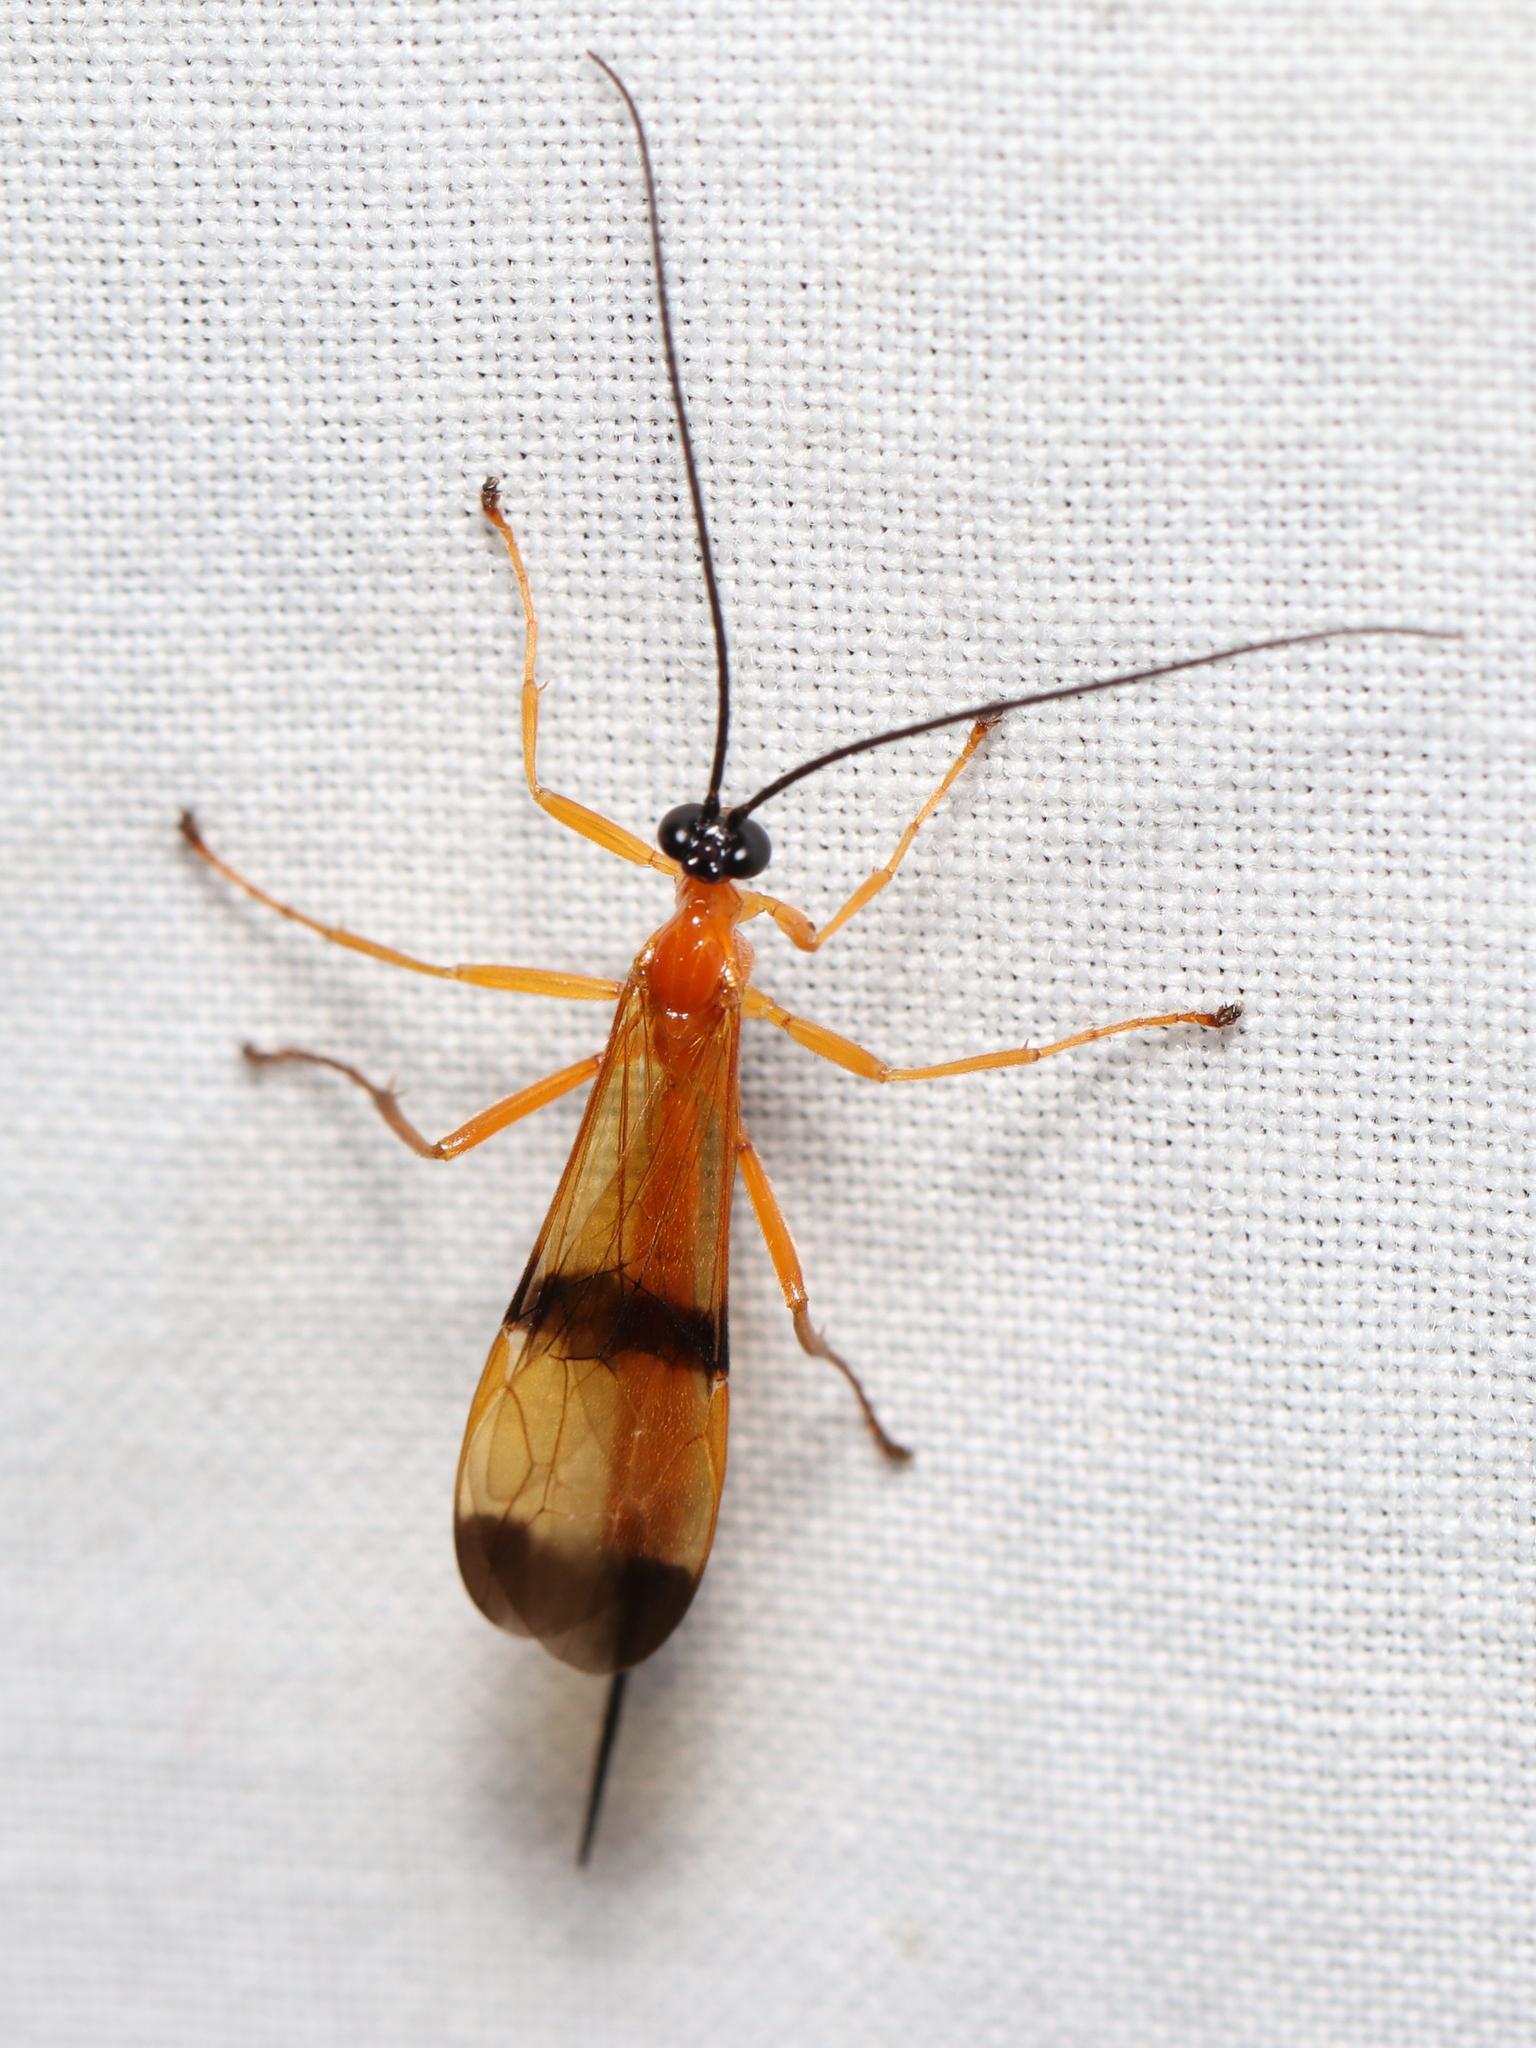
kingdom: Animalia
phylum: Arthropoda
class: Insecta
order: Hymenoptera
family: Ichneumonidae
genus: Acrotaphus
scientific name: Acrotaphus wiltii
